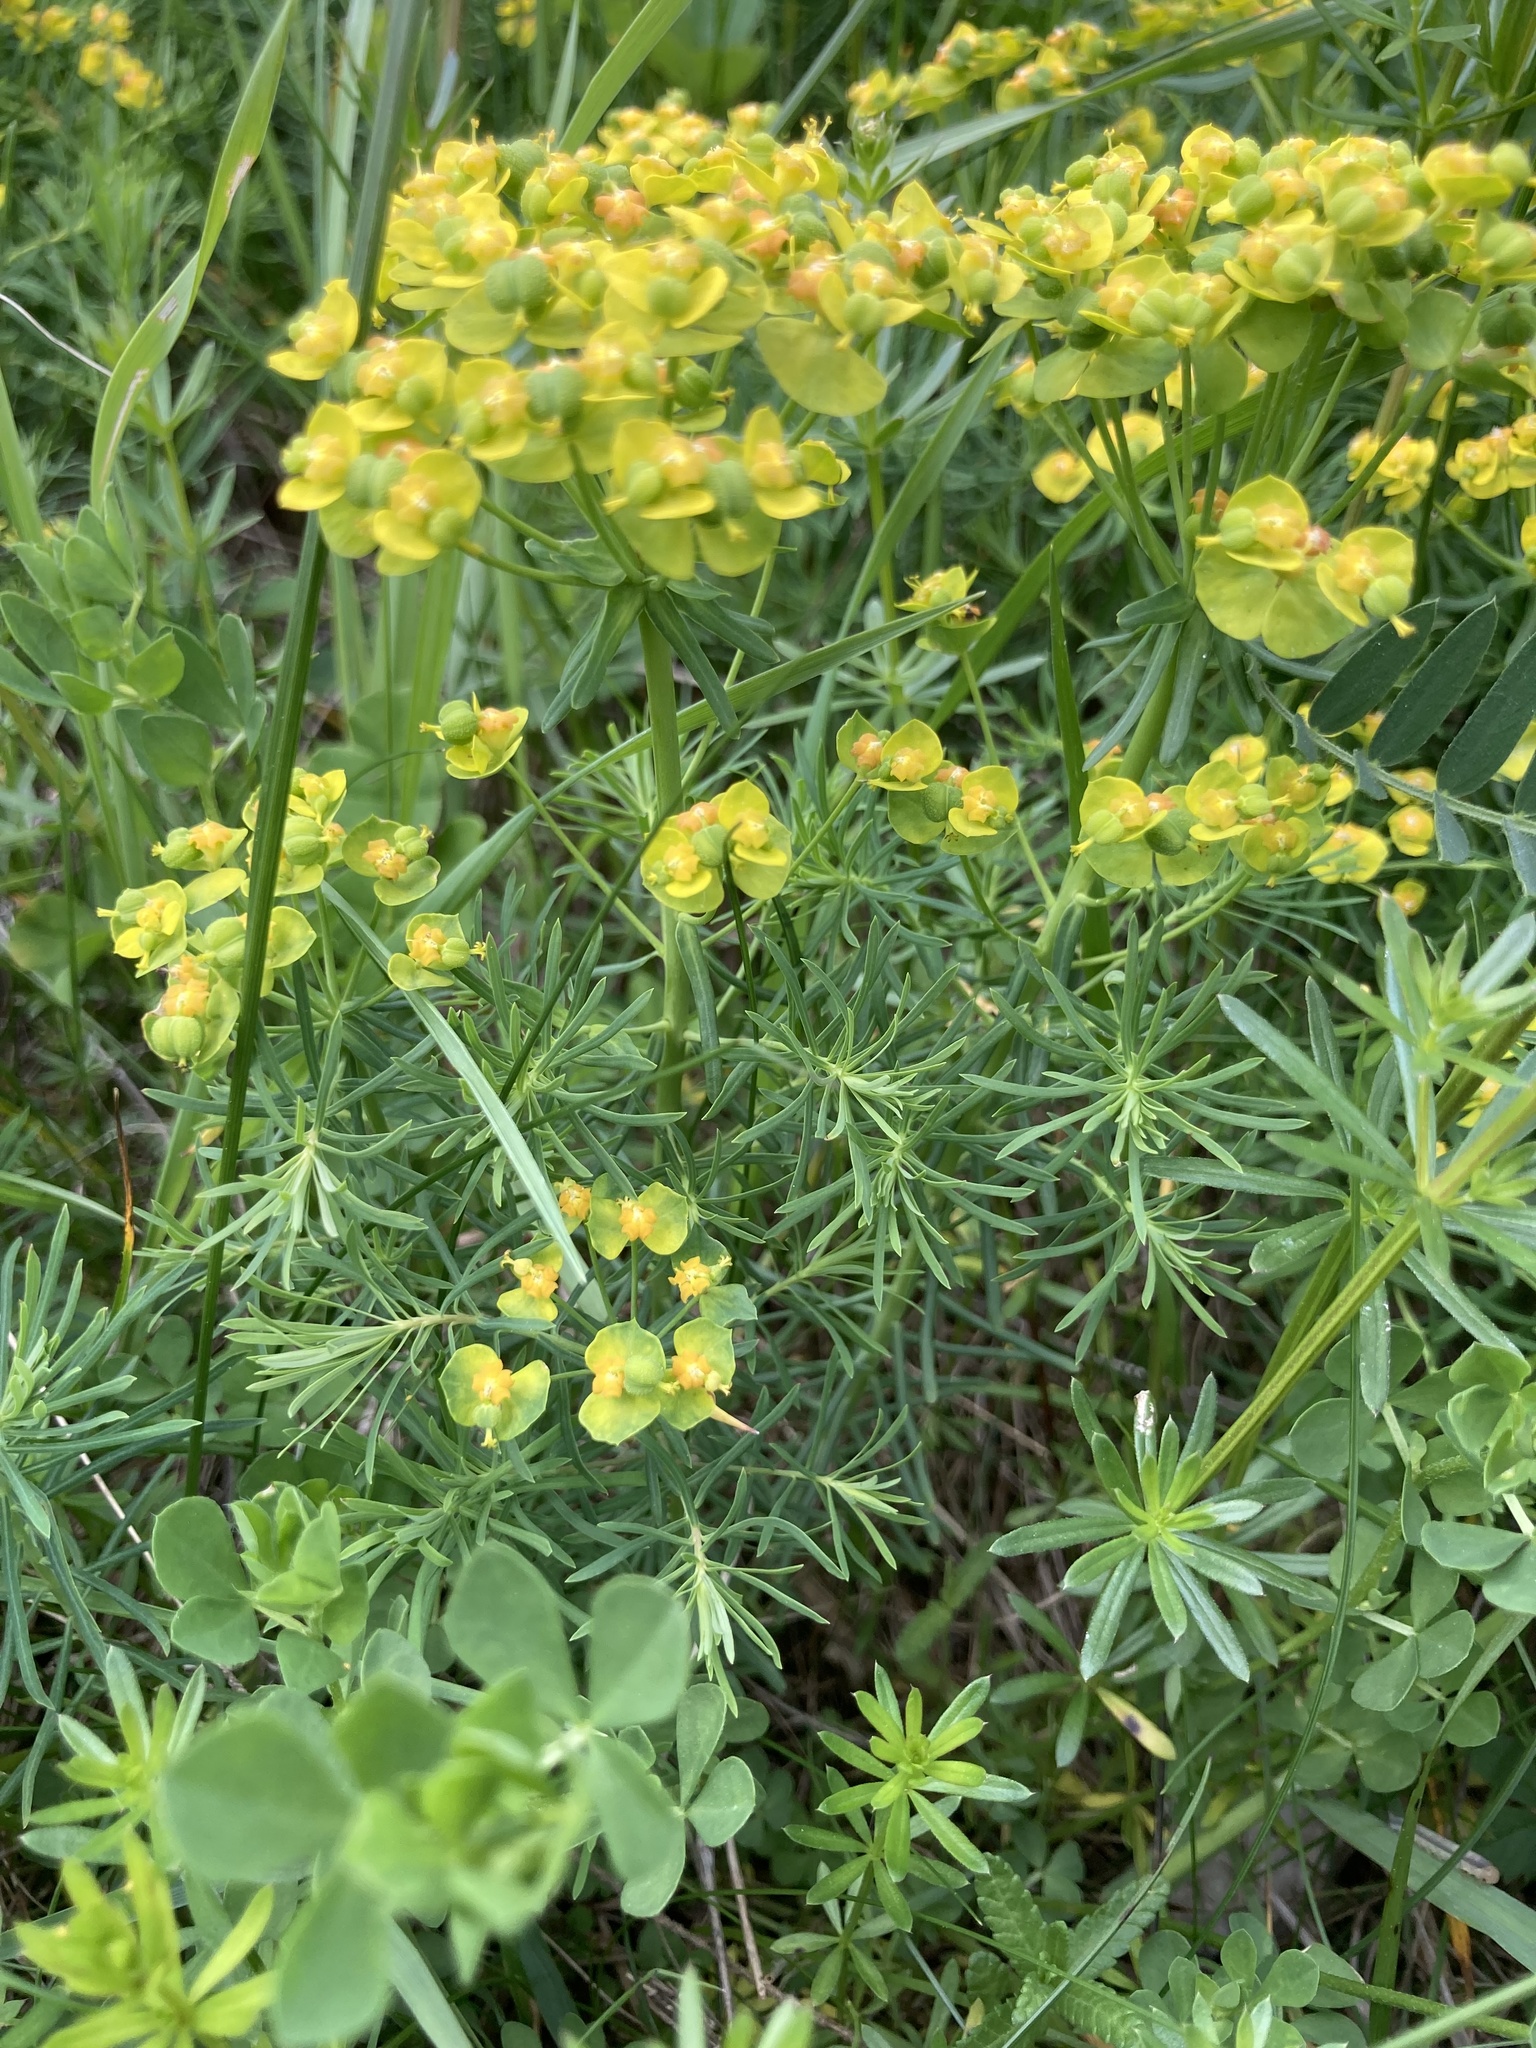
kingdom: Plantae
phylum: Tracheophyta
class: Magnoliopsida
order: Malpighiales
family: Euphorbiaceae
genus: Euphorbia
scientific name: Euphorbia cyparissias
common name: Cypress spurge
